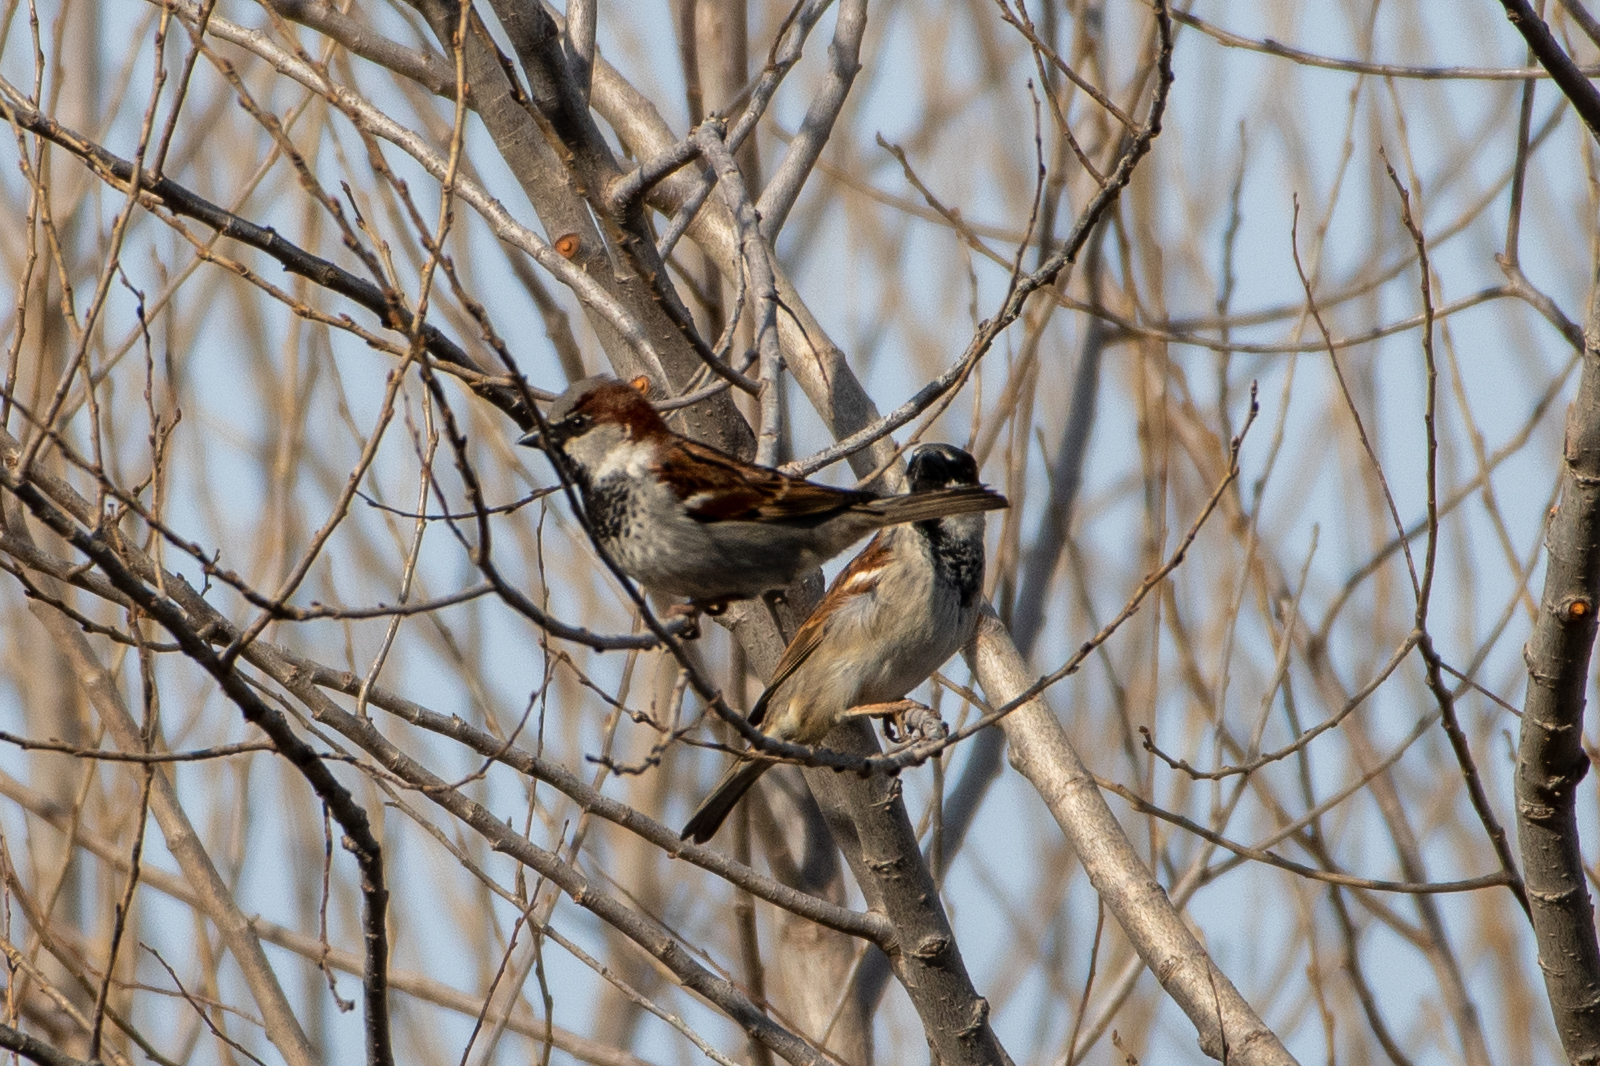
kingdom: Animalia
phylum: Chordata
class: Aves
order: Passeriformes
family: Passeridae
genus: Passer
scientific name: Passer domesticus
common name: House sparrow
